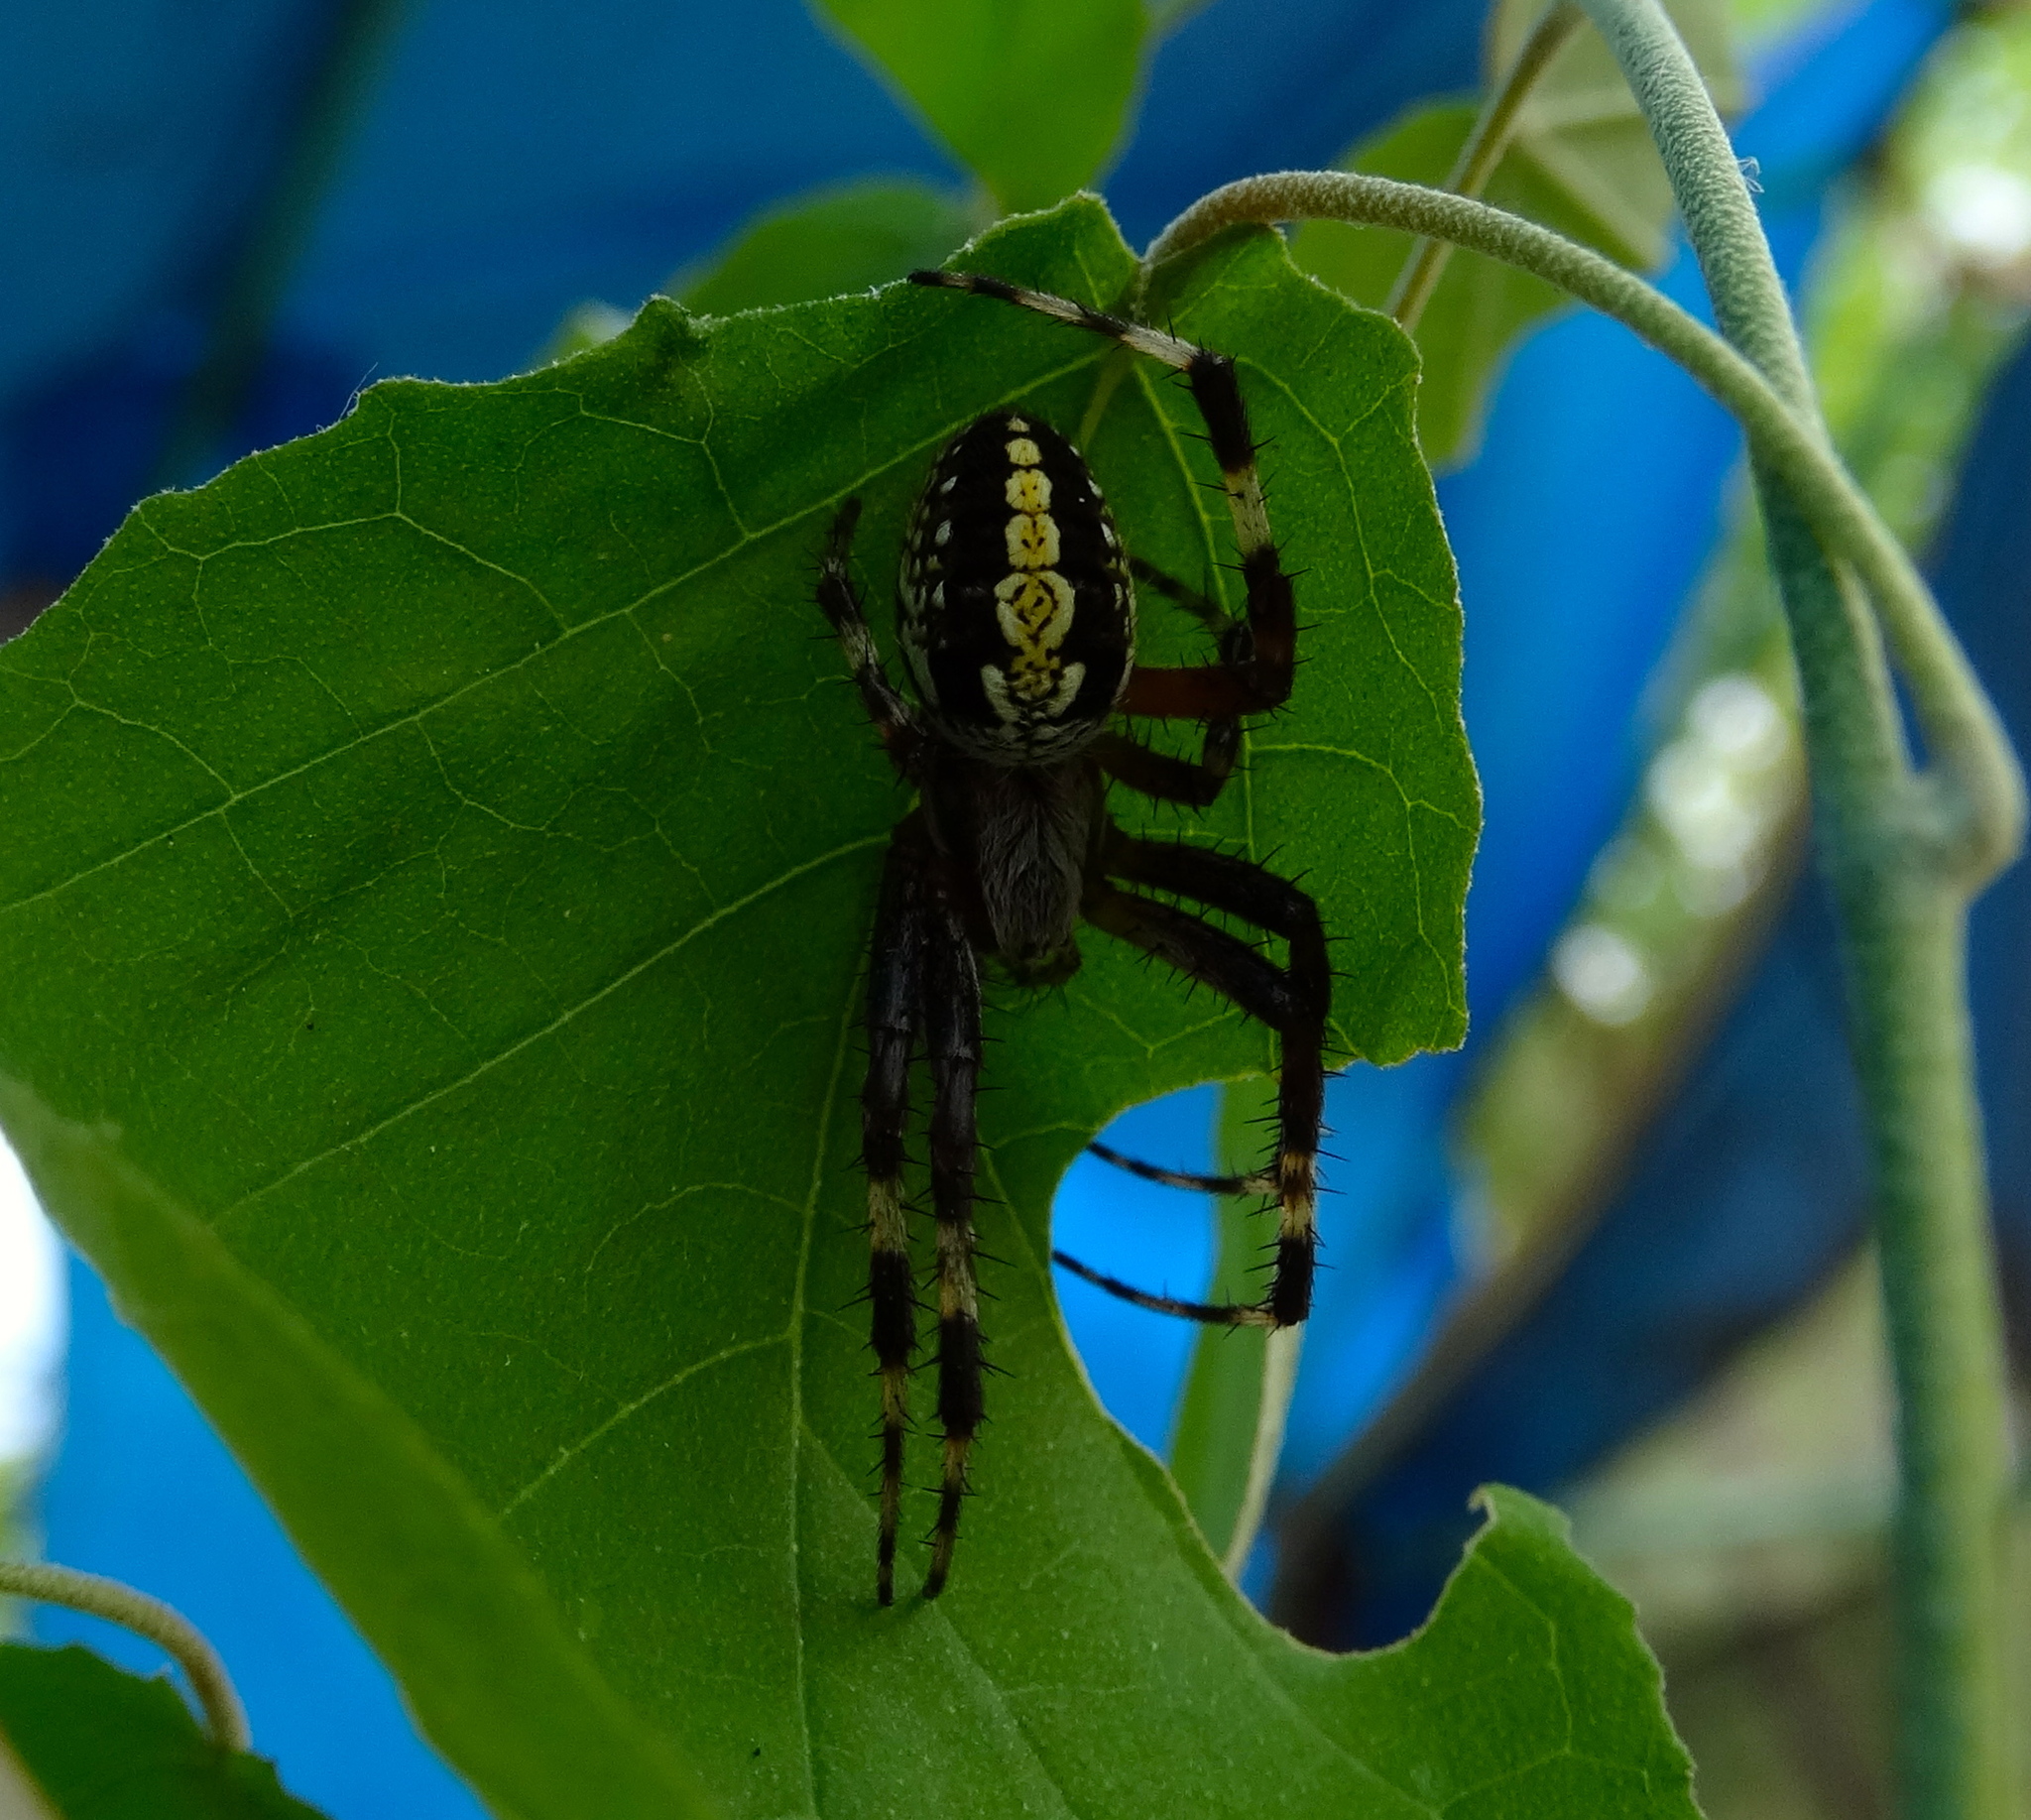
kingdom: Animalia
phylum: Arthropoda
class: Arachnida
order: Araneae
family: Araneidae
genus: Neoscona
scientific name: Neoscona oaxacensis
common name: Orb weavers
